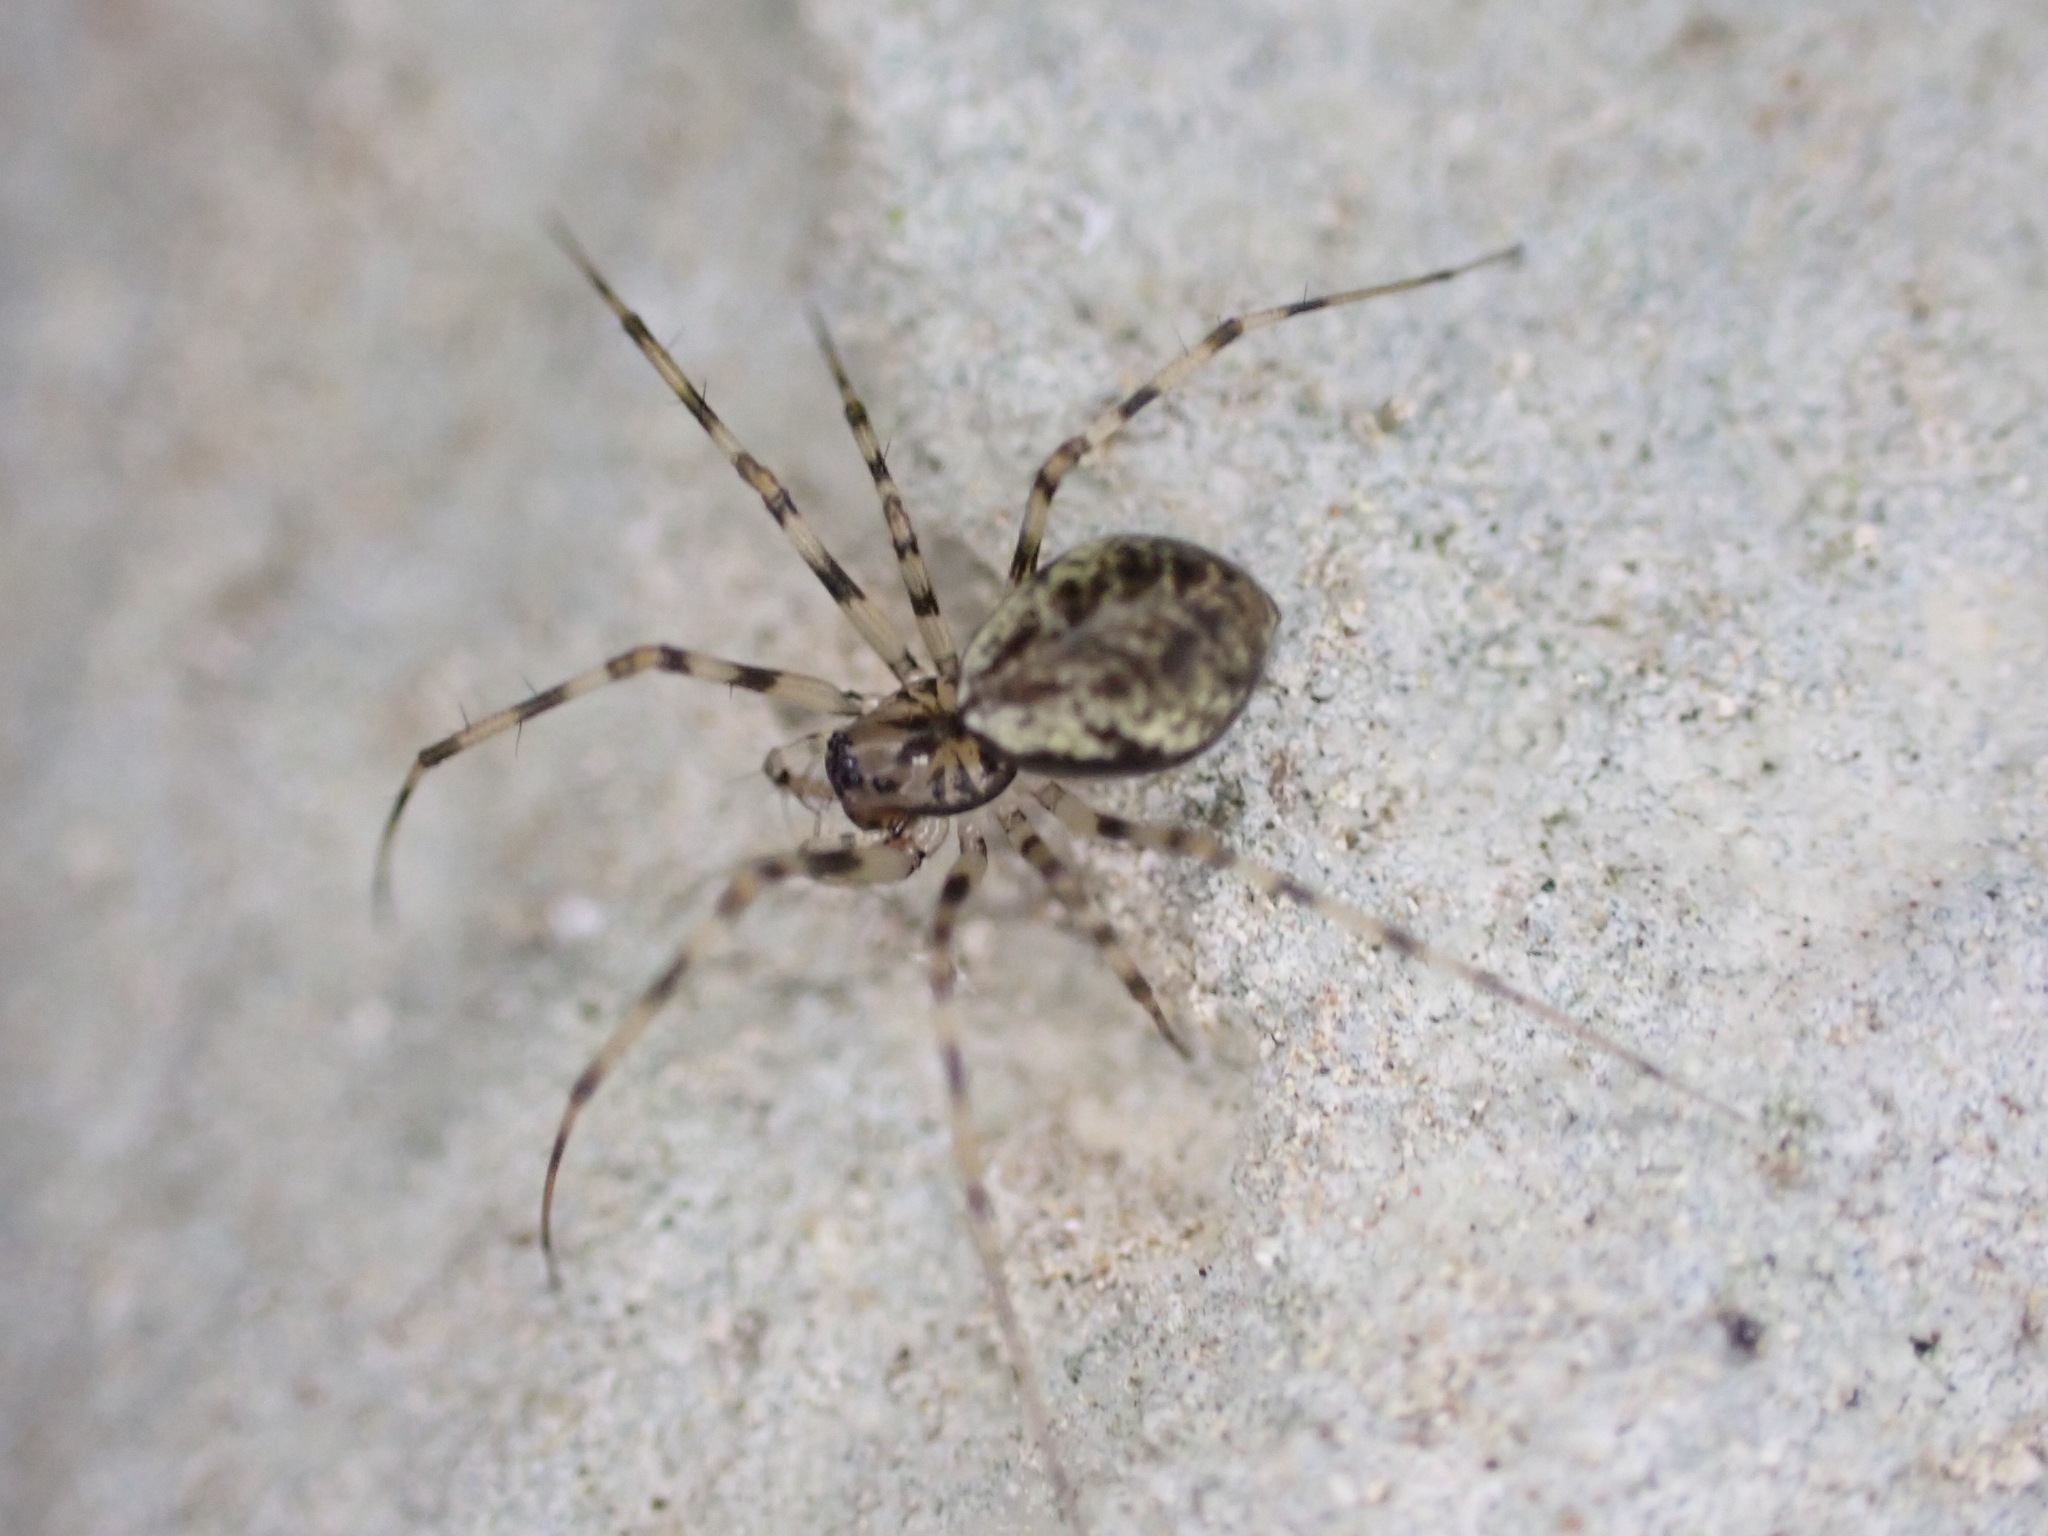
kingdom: Animalia
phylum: Arthropoda
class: Arachnida
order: Araneae
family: Linyphiidae
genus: Drapetisca
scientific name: Drapetisca socialis
